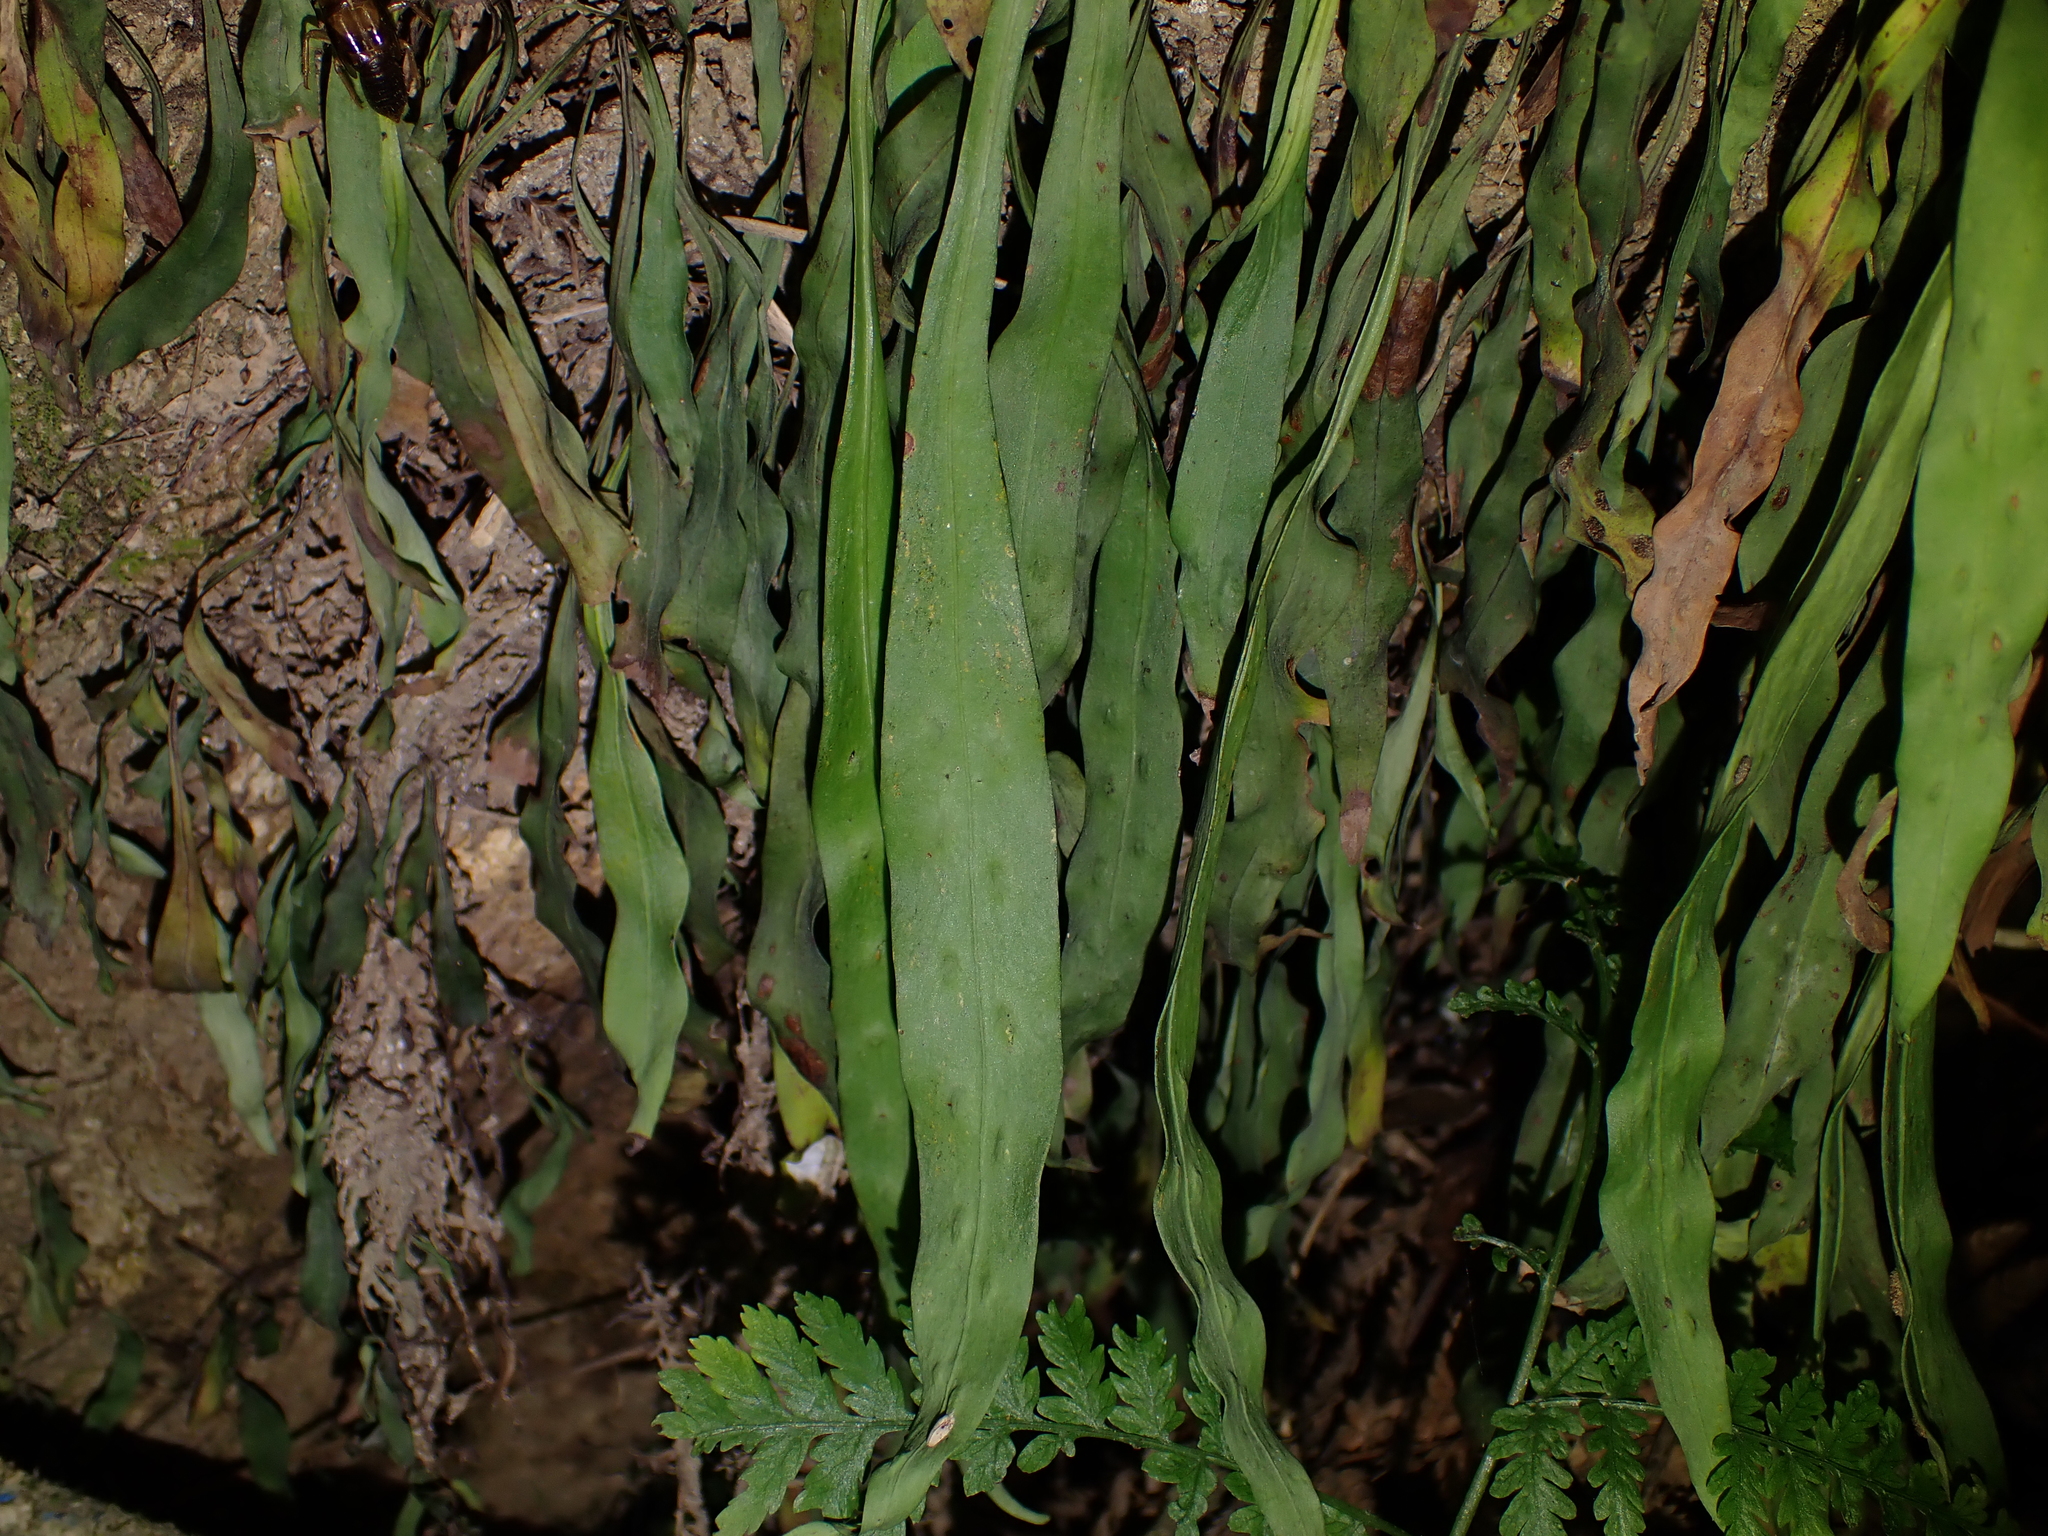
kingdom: Plantae
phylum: Tracheophyta
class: Polypodiopsida
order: Polypodiales
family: Polypodiaceae
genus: Loxogramme
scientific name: Loxogramme dictyopteris
